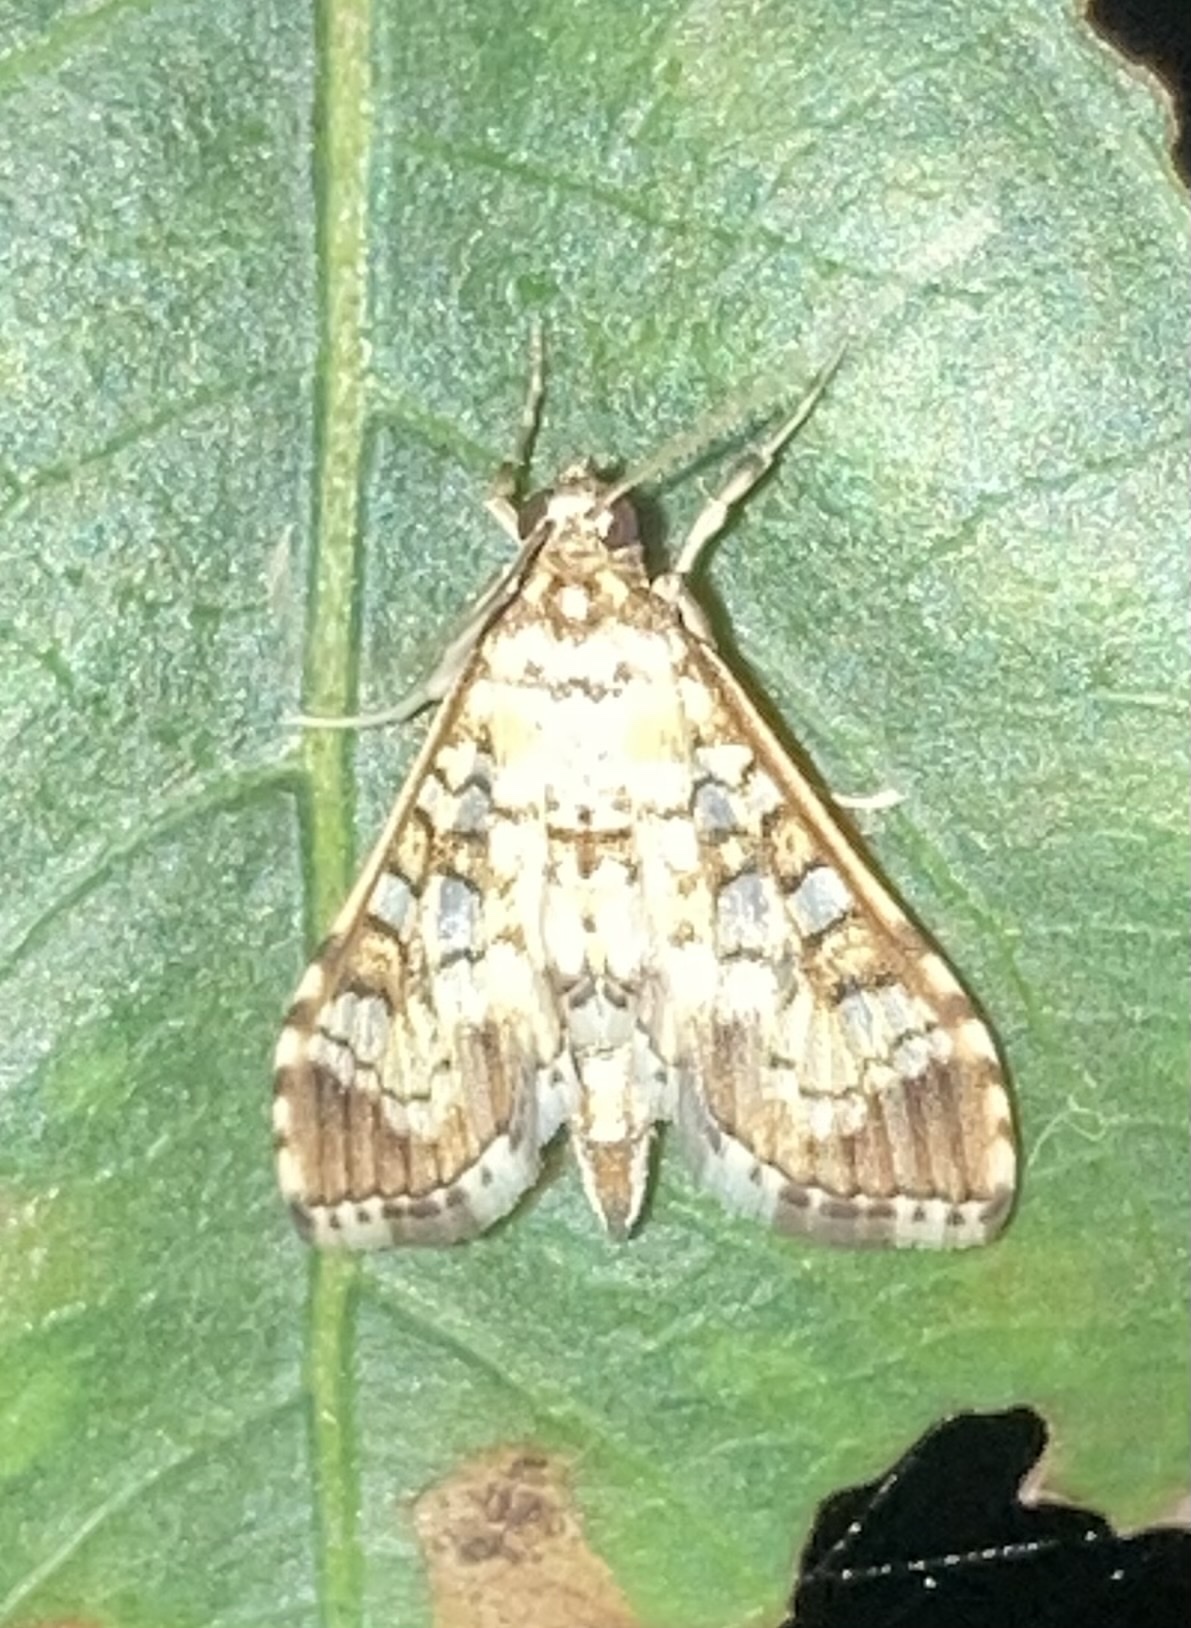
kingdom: Animalia
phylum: Arthropoda
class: Insecta
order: Lepidoptera
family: Crambidae
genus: Samea
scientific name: Samea ecclesialis
